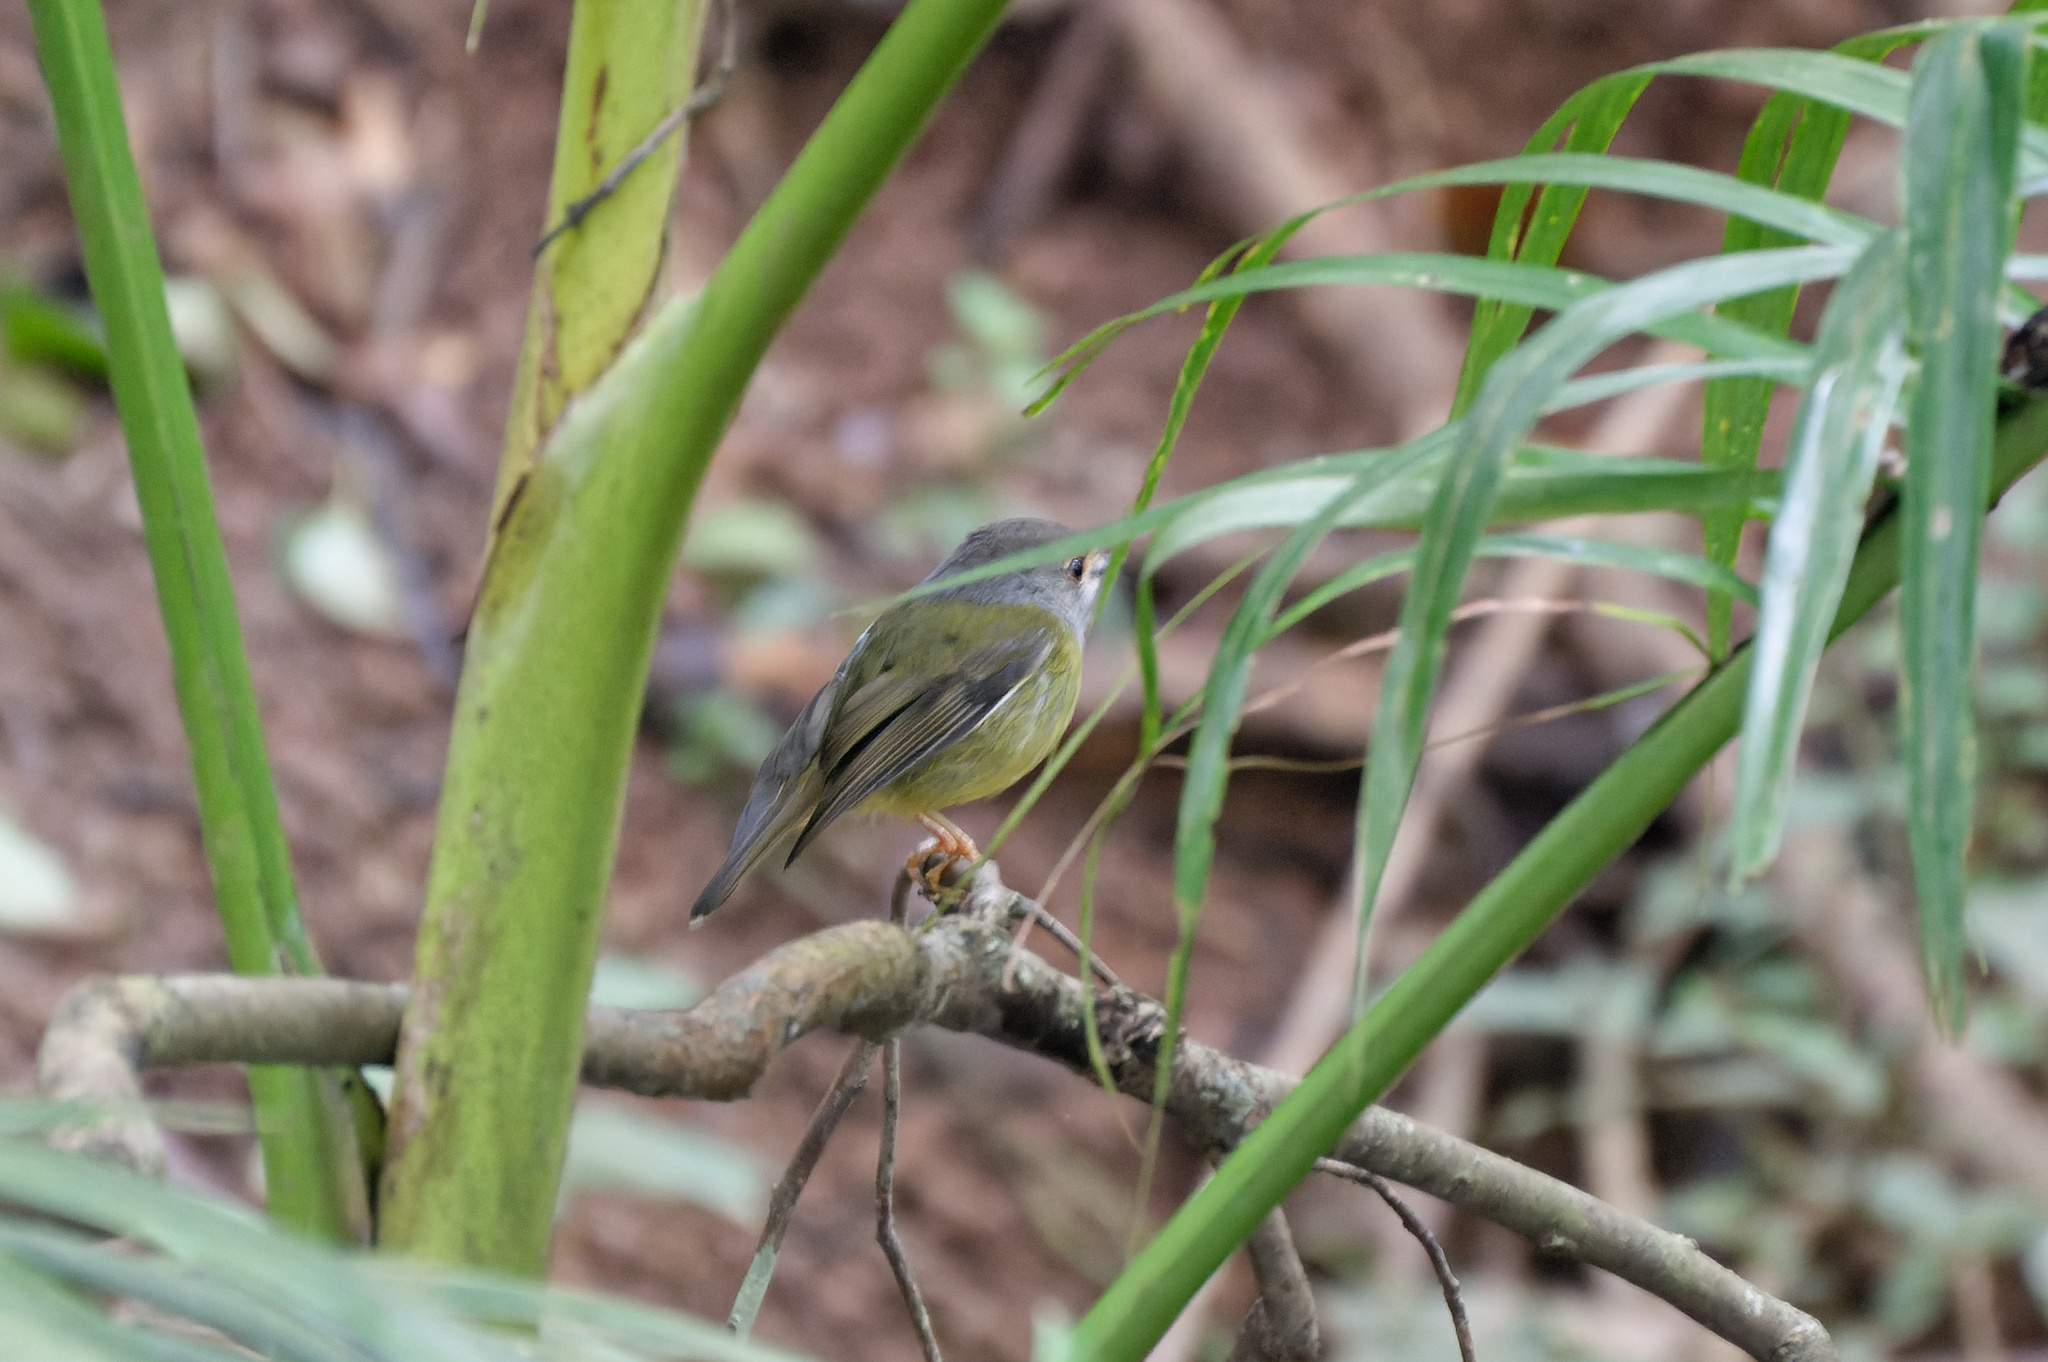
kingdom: Animalia
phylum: Chordata
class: Aves
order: Passeriformes
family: Petroicidae
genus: Eopsaltria
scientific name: Eopsaltria
